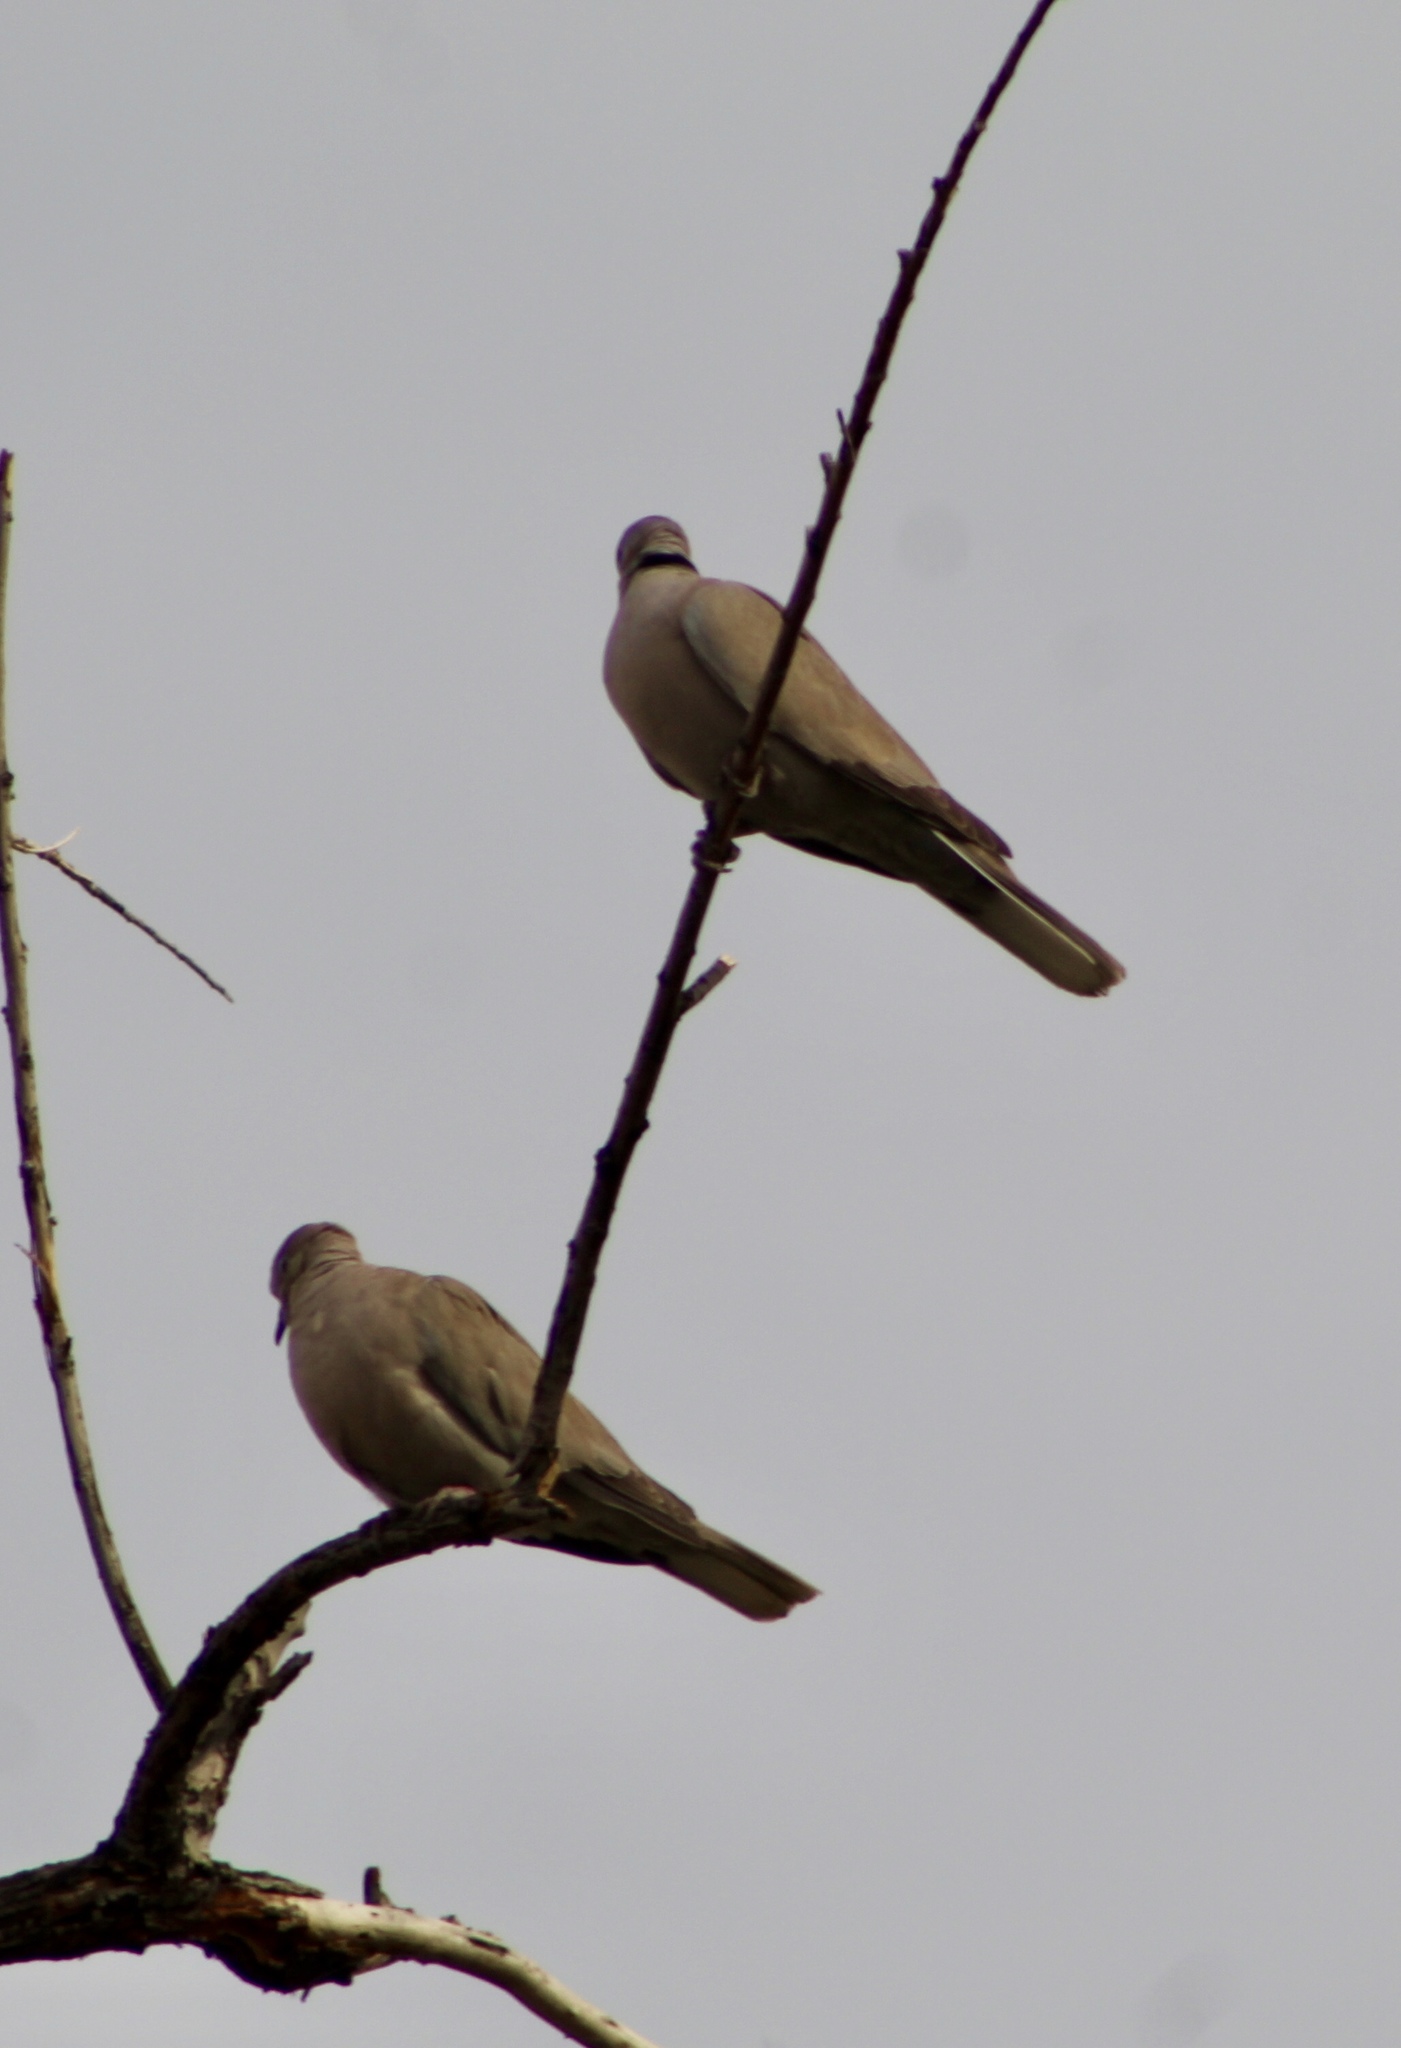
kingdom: Animalia
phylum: Chordata
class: Aves
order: Columbiformes
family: Columbidae
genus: Streptopelia
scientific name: Streptopelia decaocto
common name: Eurasian collared dove
